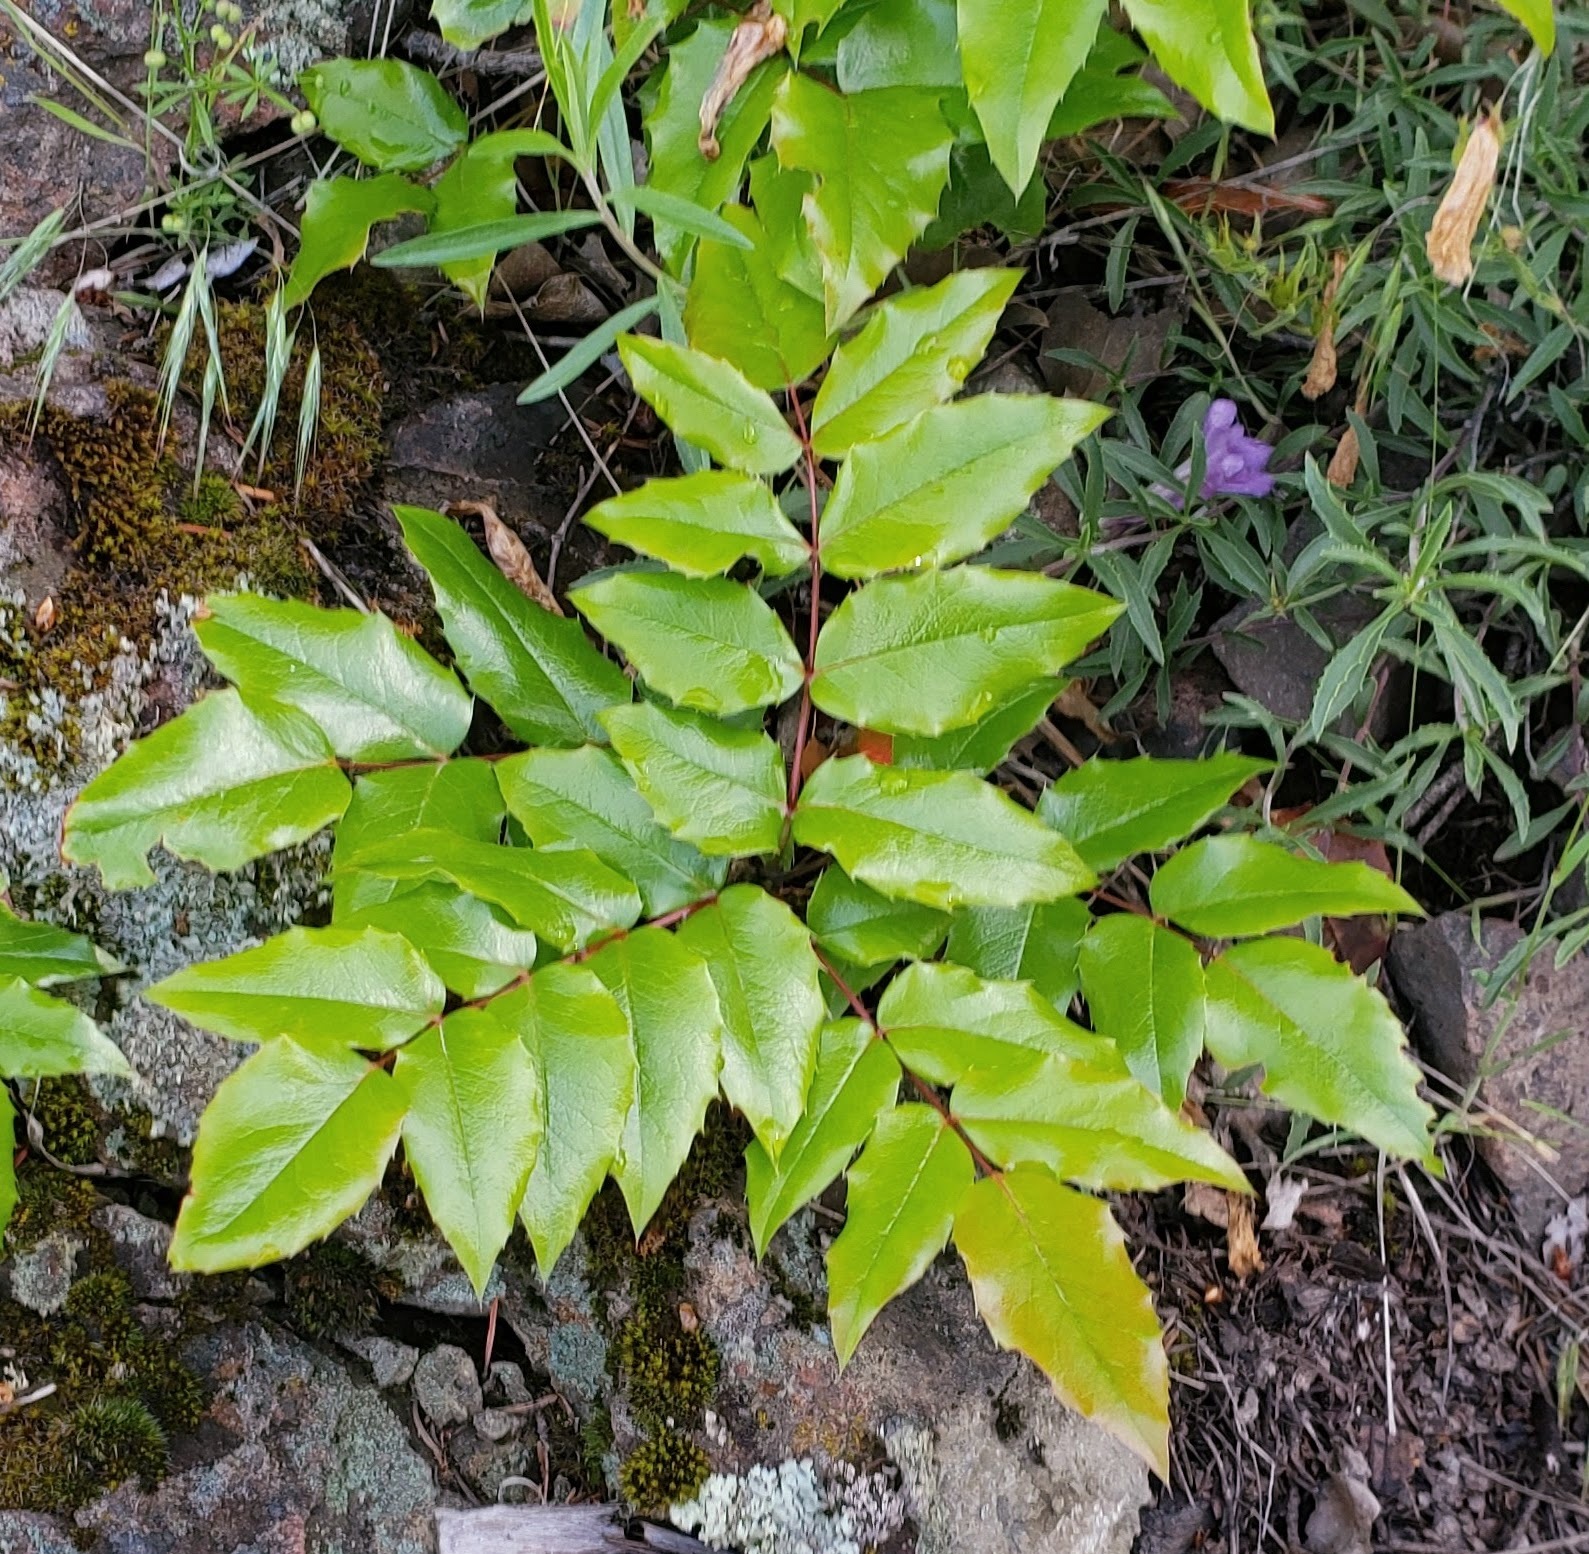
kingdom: Plantae
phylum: Tracheophyta
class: Magnoliopsida
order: Ranunculales
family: Berberidaceae
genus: Mahonia
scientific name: Mahonia aquifolium
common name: Oregon-grape
